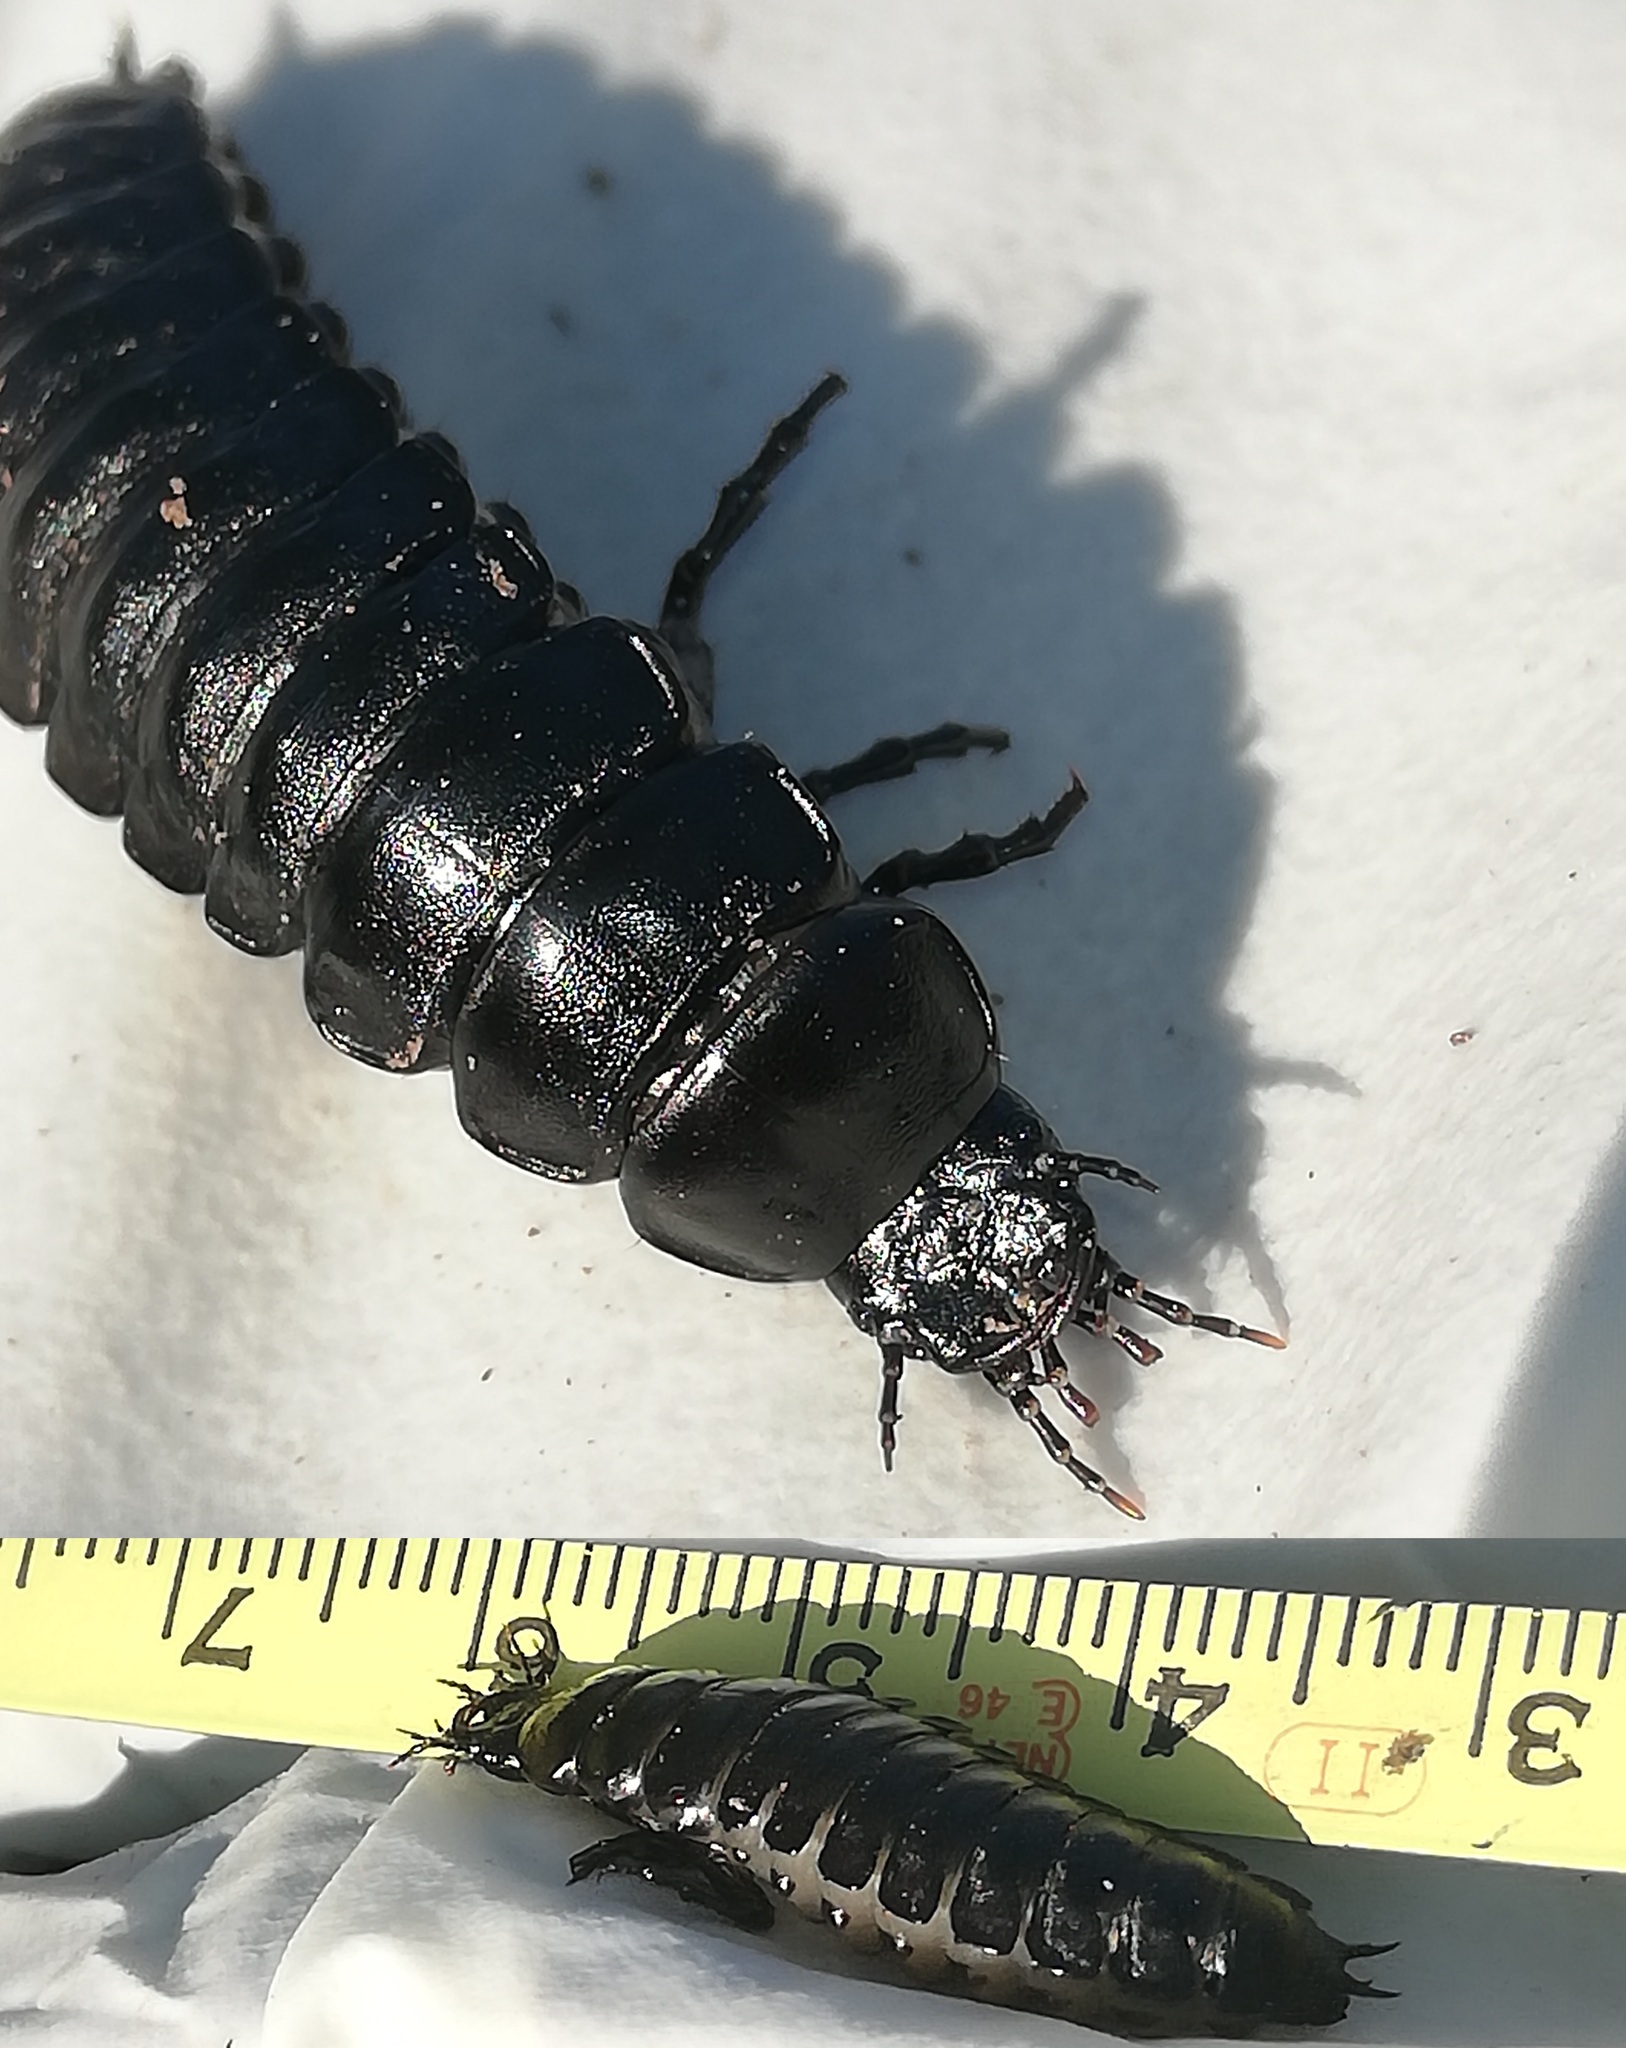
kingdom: Animalia
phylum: Arthropoda
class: Insecta
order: Coleoptera
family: Carabidae
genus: Carabus
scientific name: Carabus coriaceus
